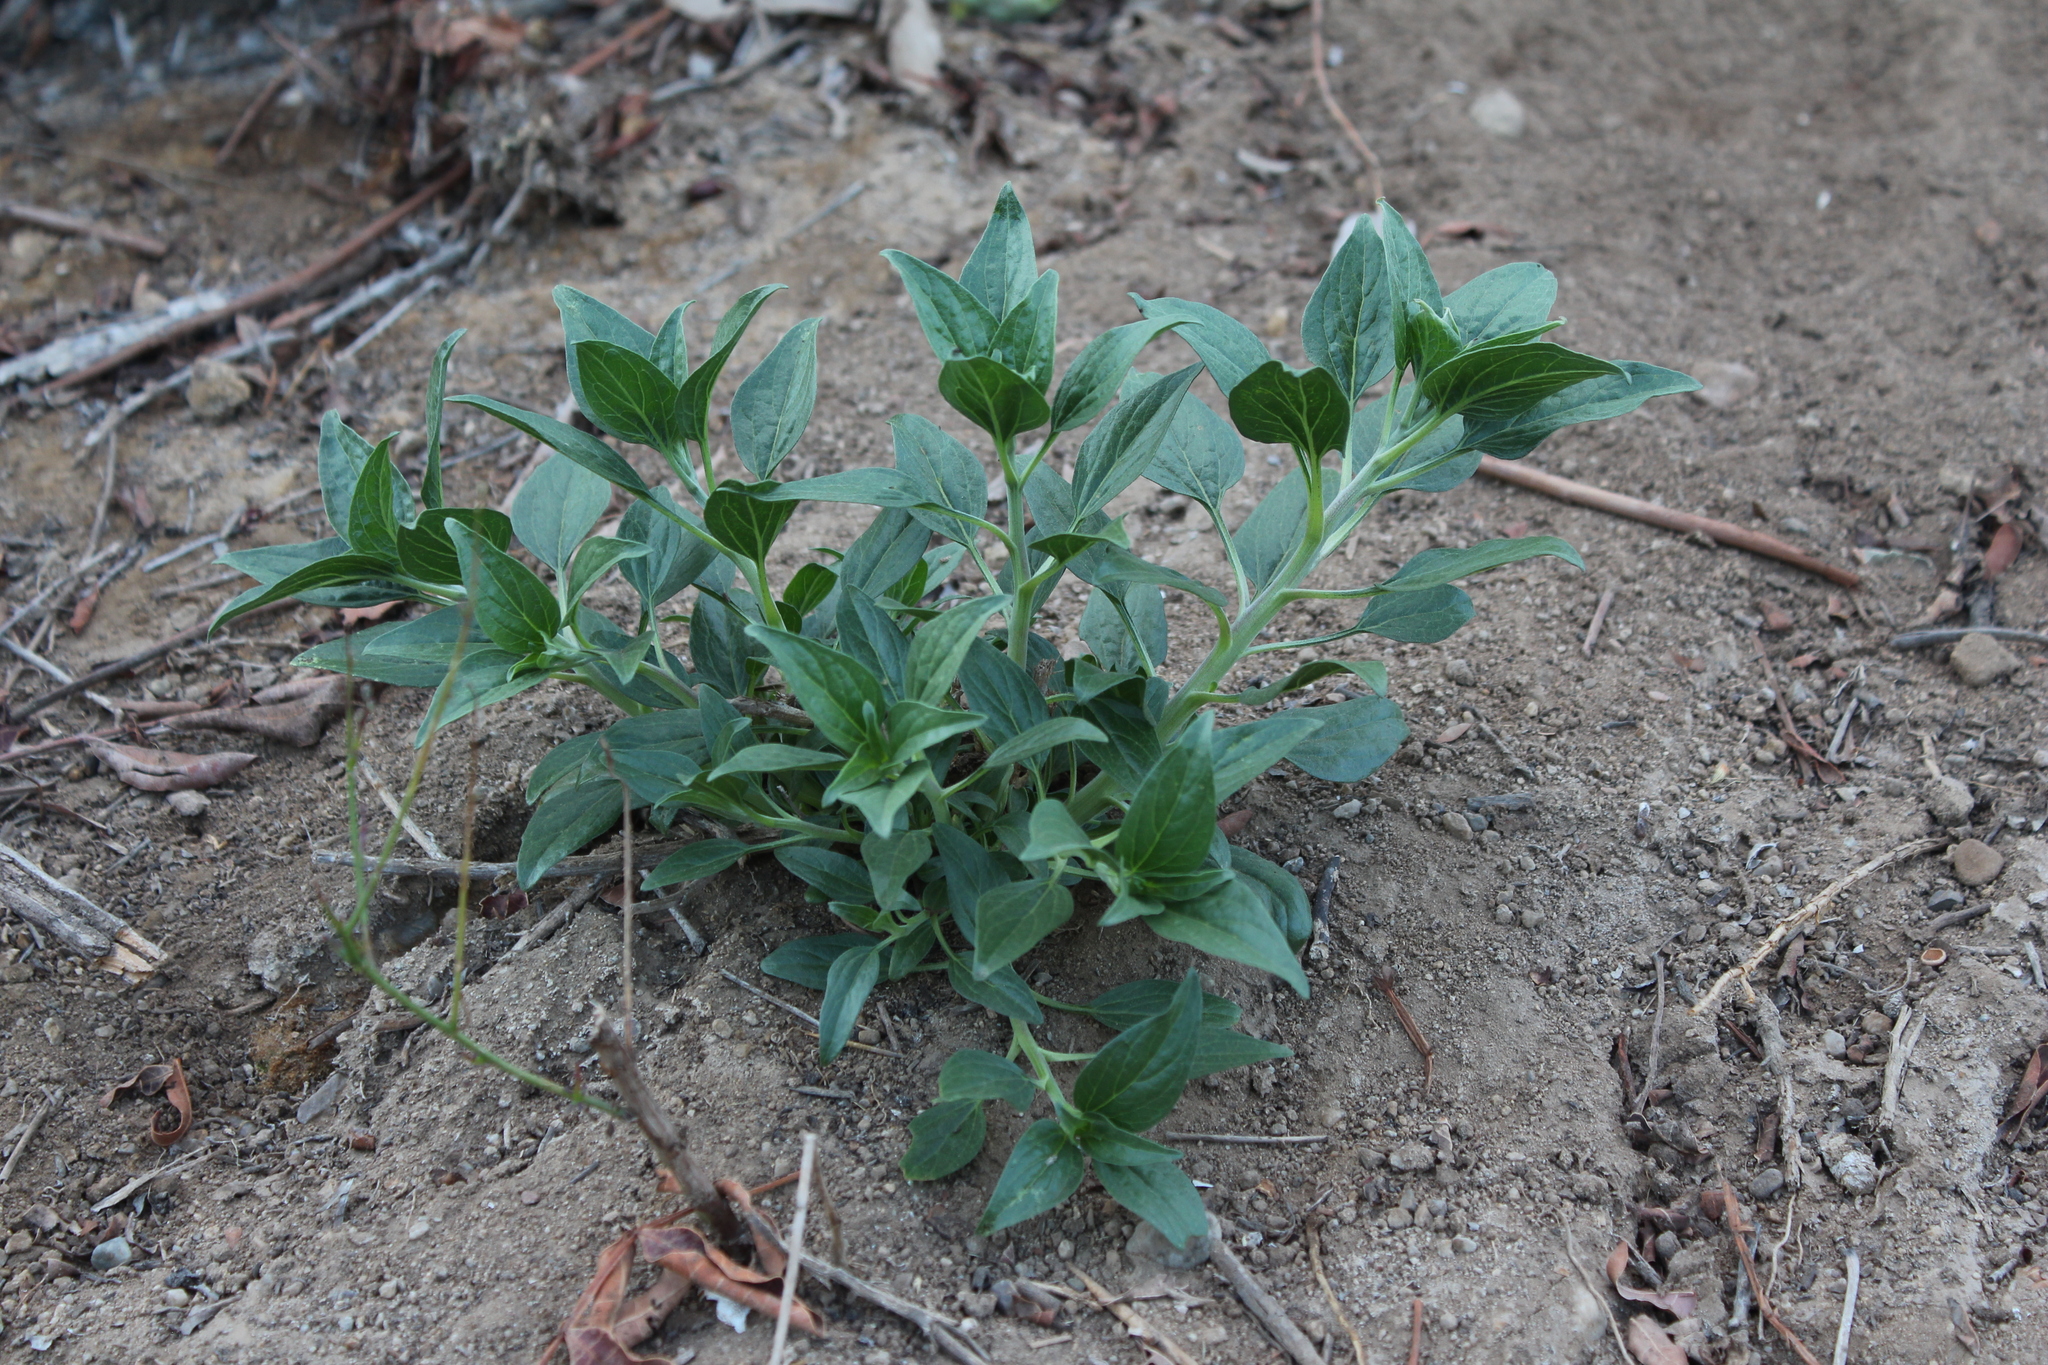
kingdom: Plantae
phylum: Tracheophyta
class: Magnoliopsida
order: Asterales
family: Asteraceae
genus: Encelia
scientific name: Encelia californica
